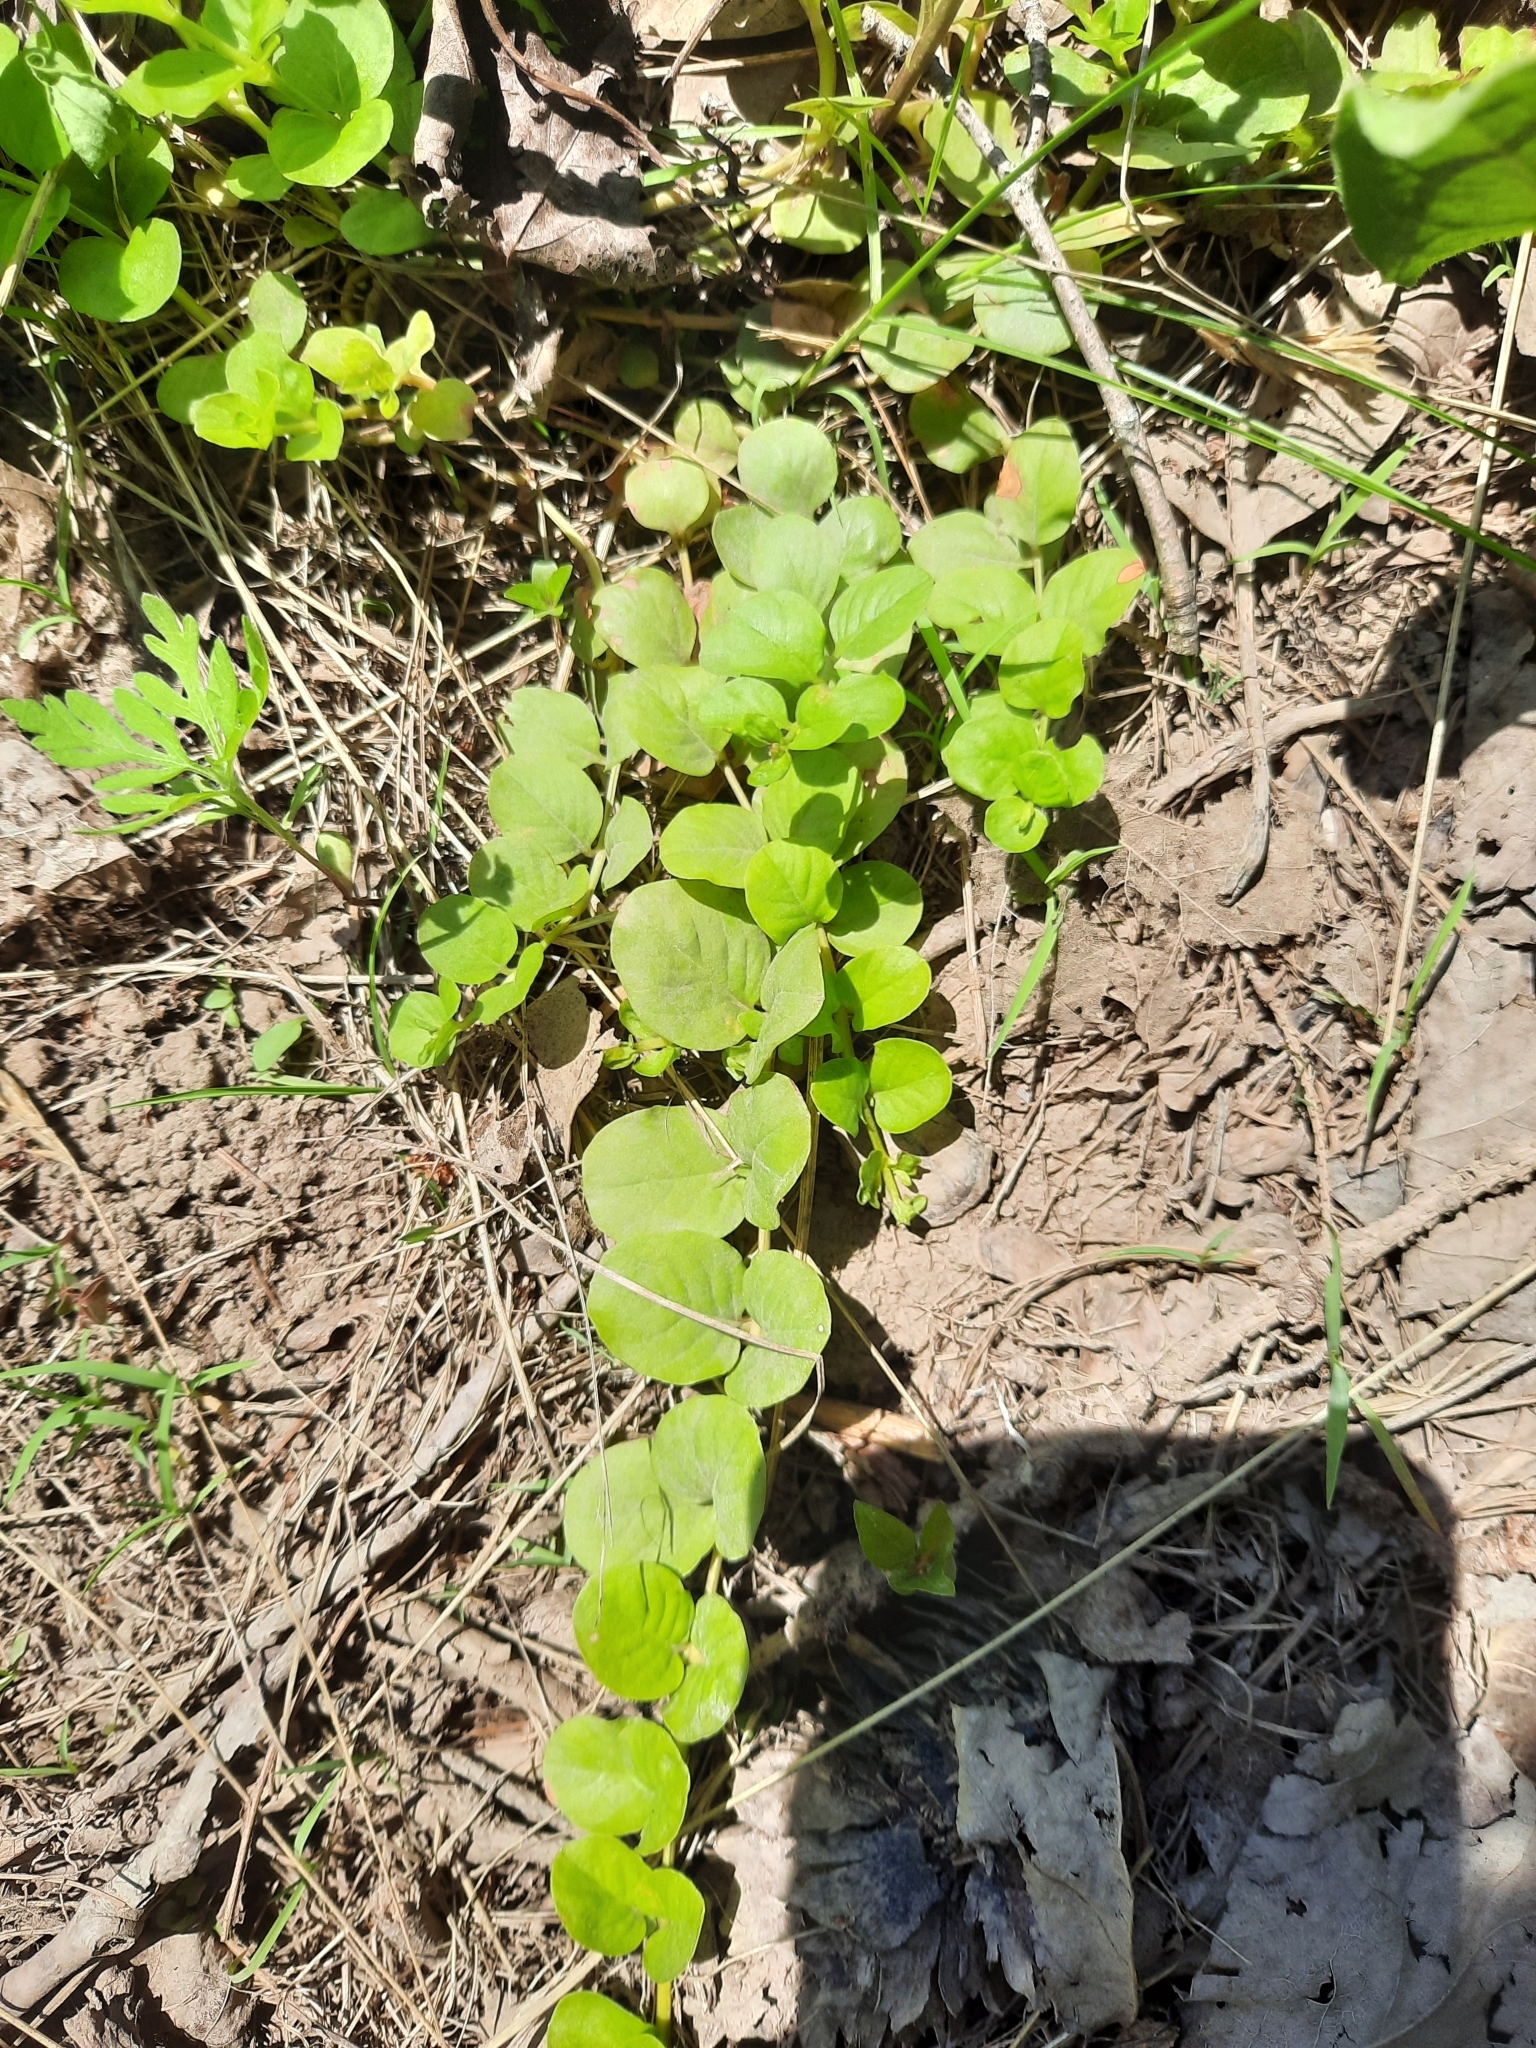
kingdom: Plantae
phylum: Tracheophyta
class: Magnoliopsida
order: Ericales
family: Primulaceae
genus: Lysimachia
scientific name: Lysimachia nummularia
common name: Moneywort
